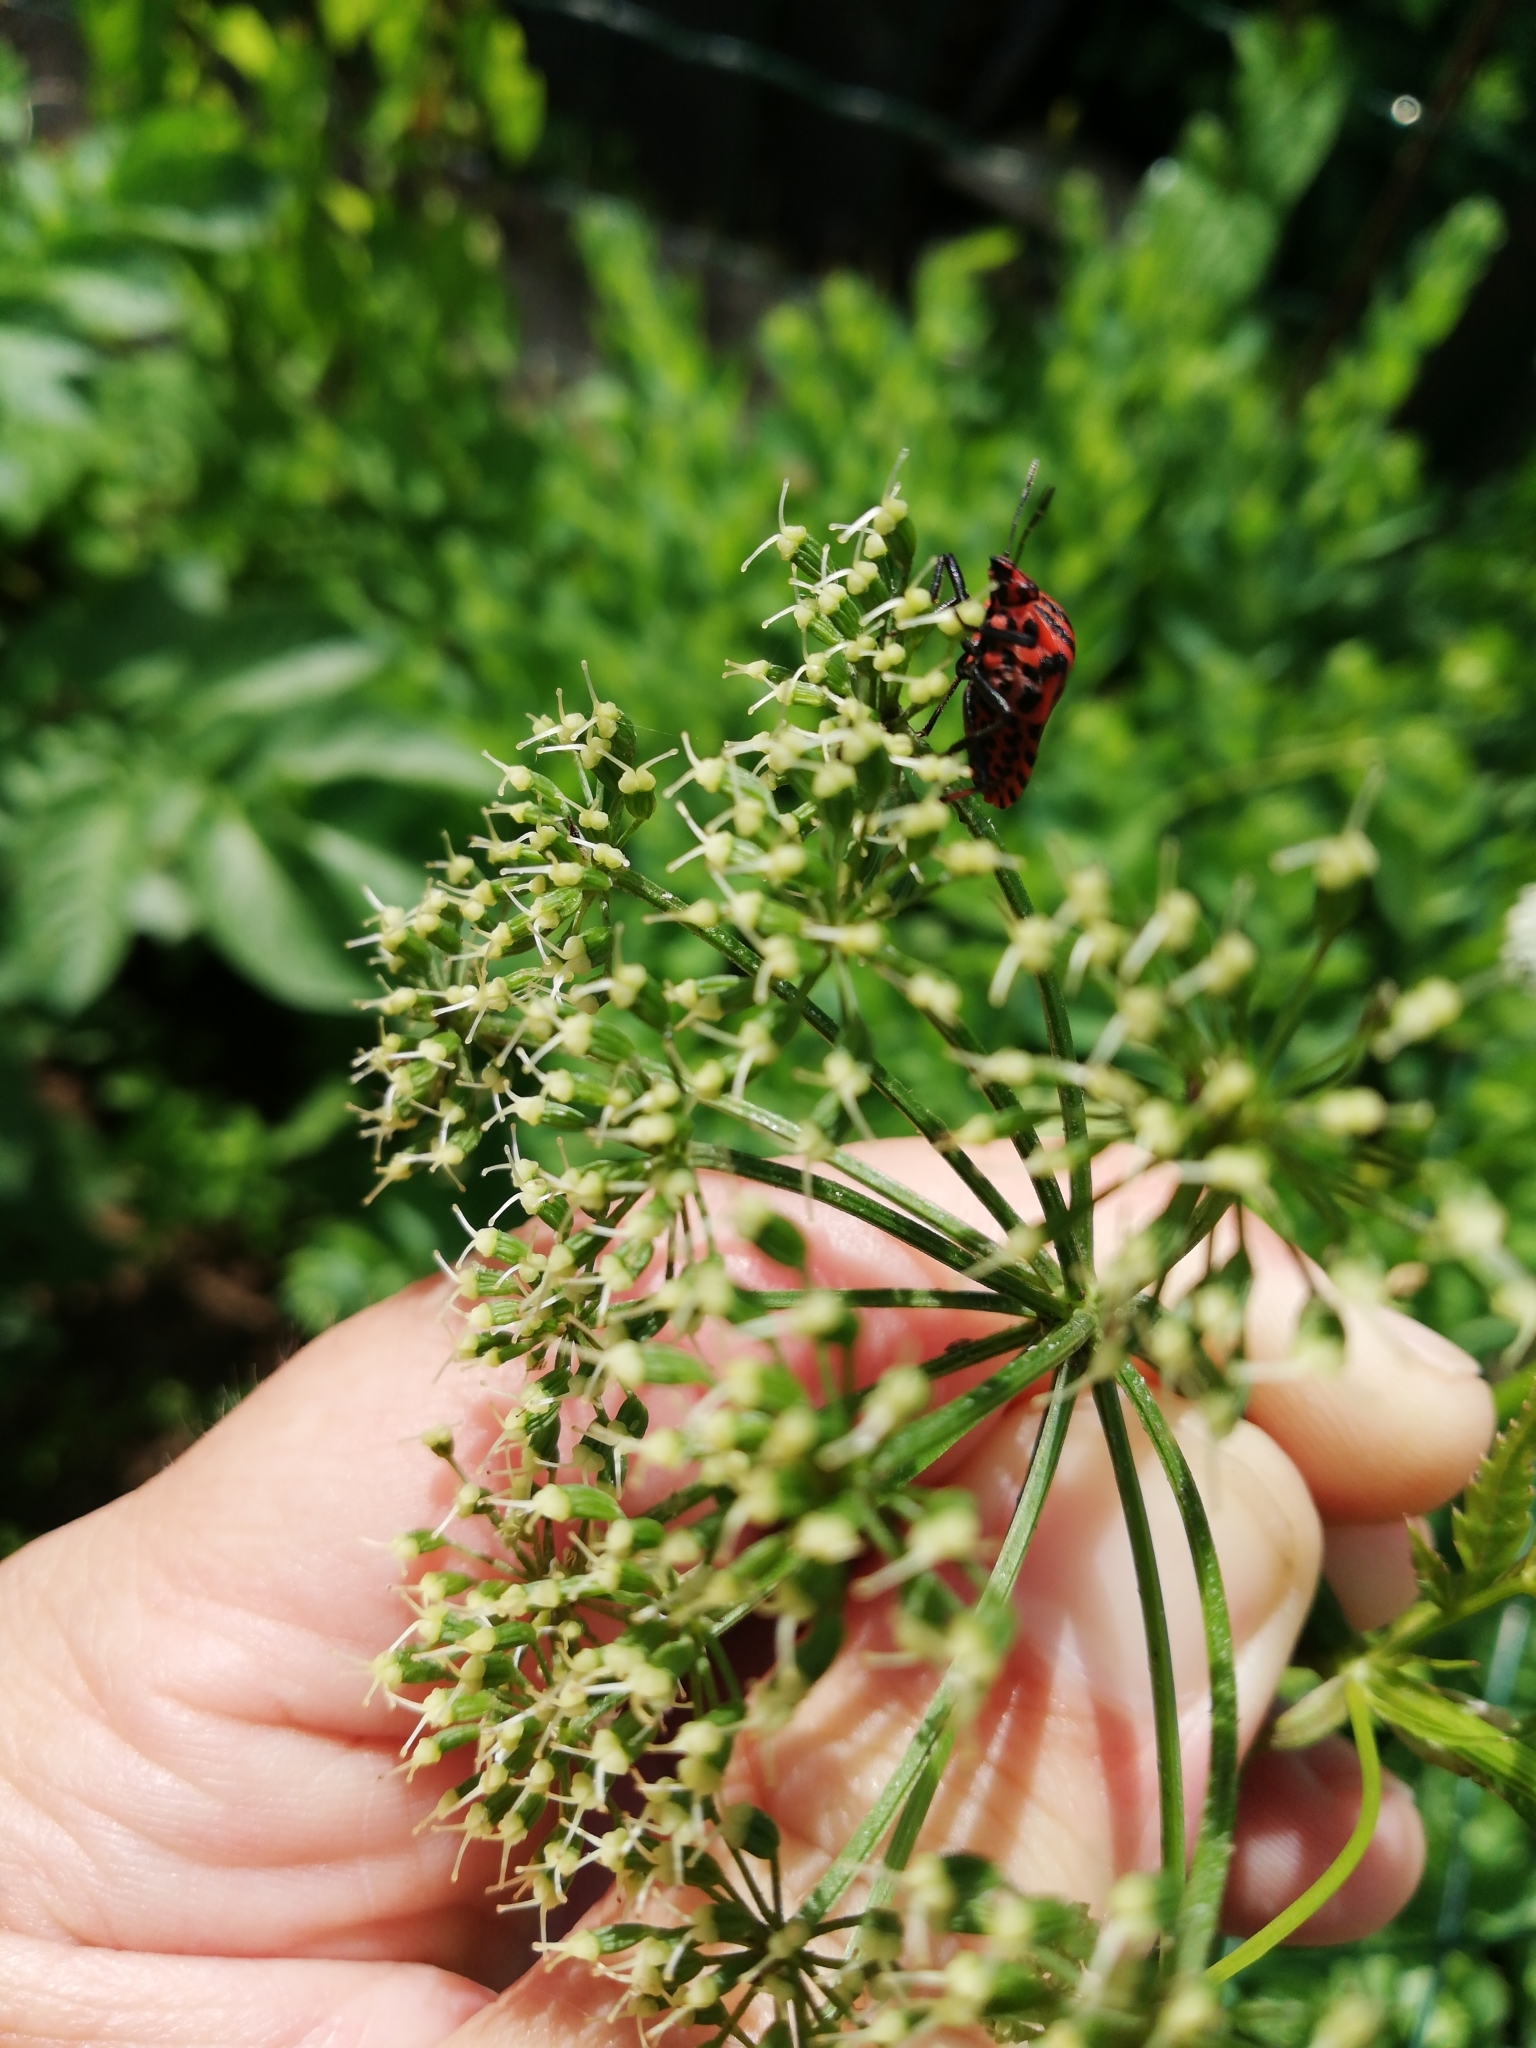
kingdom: Animalia
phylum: Arthropoda
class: Insecta
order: Hemiptera
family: Pentatomidae
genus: Graphosoma
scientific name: Graphosoma italicum
